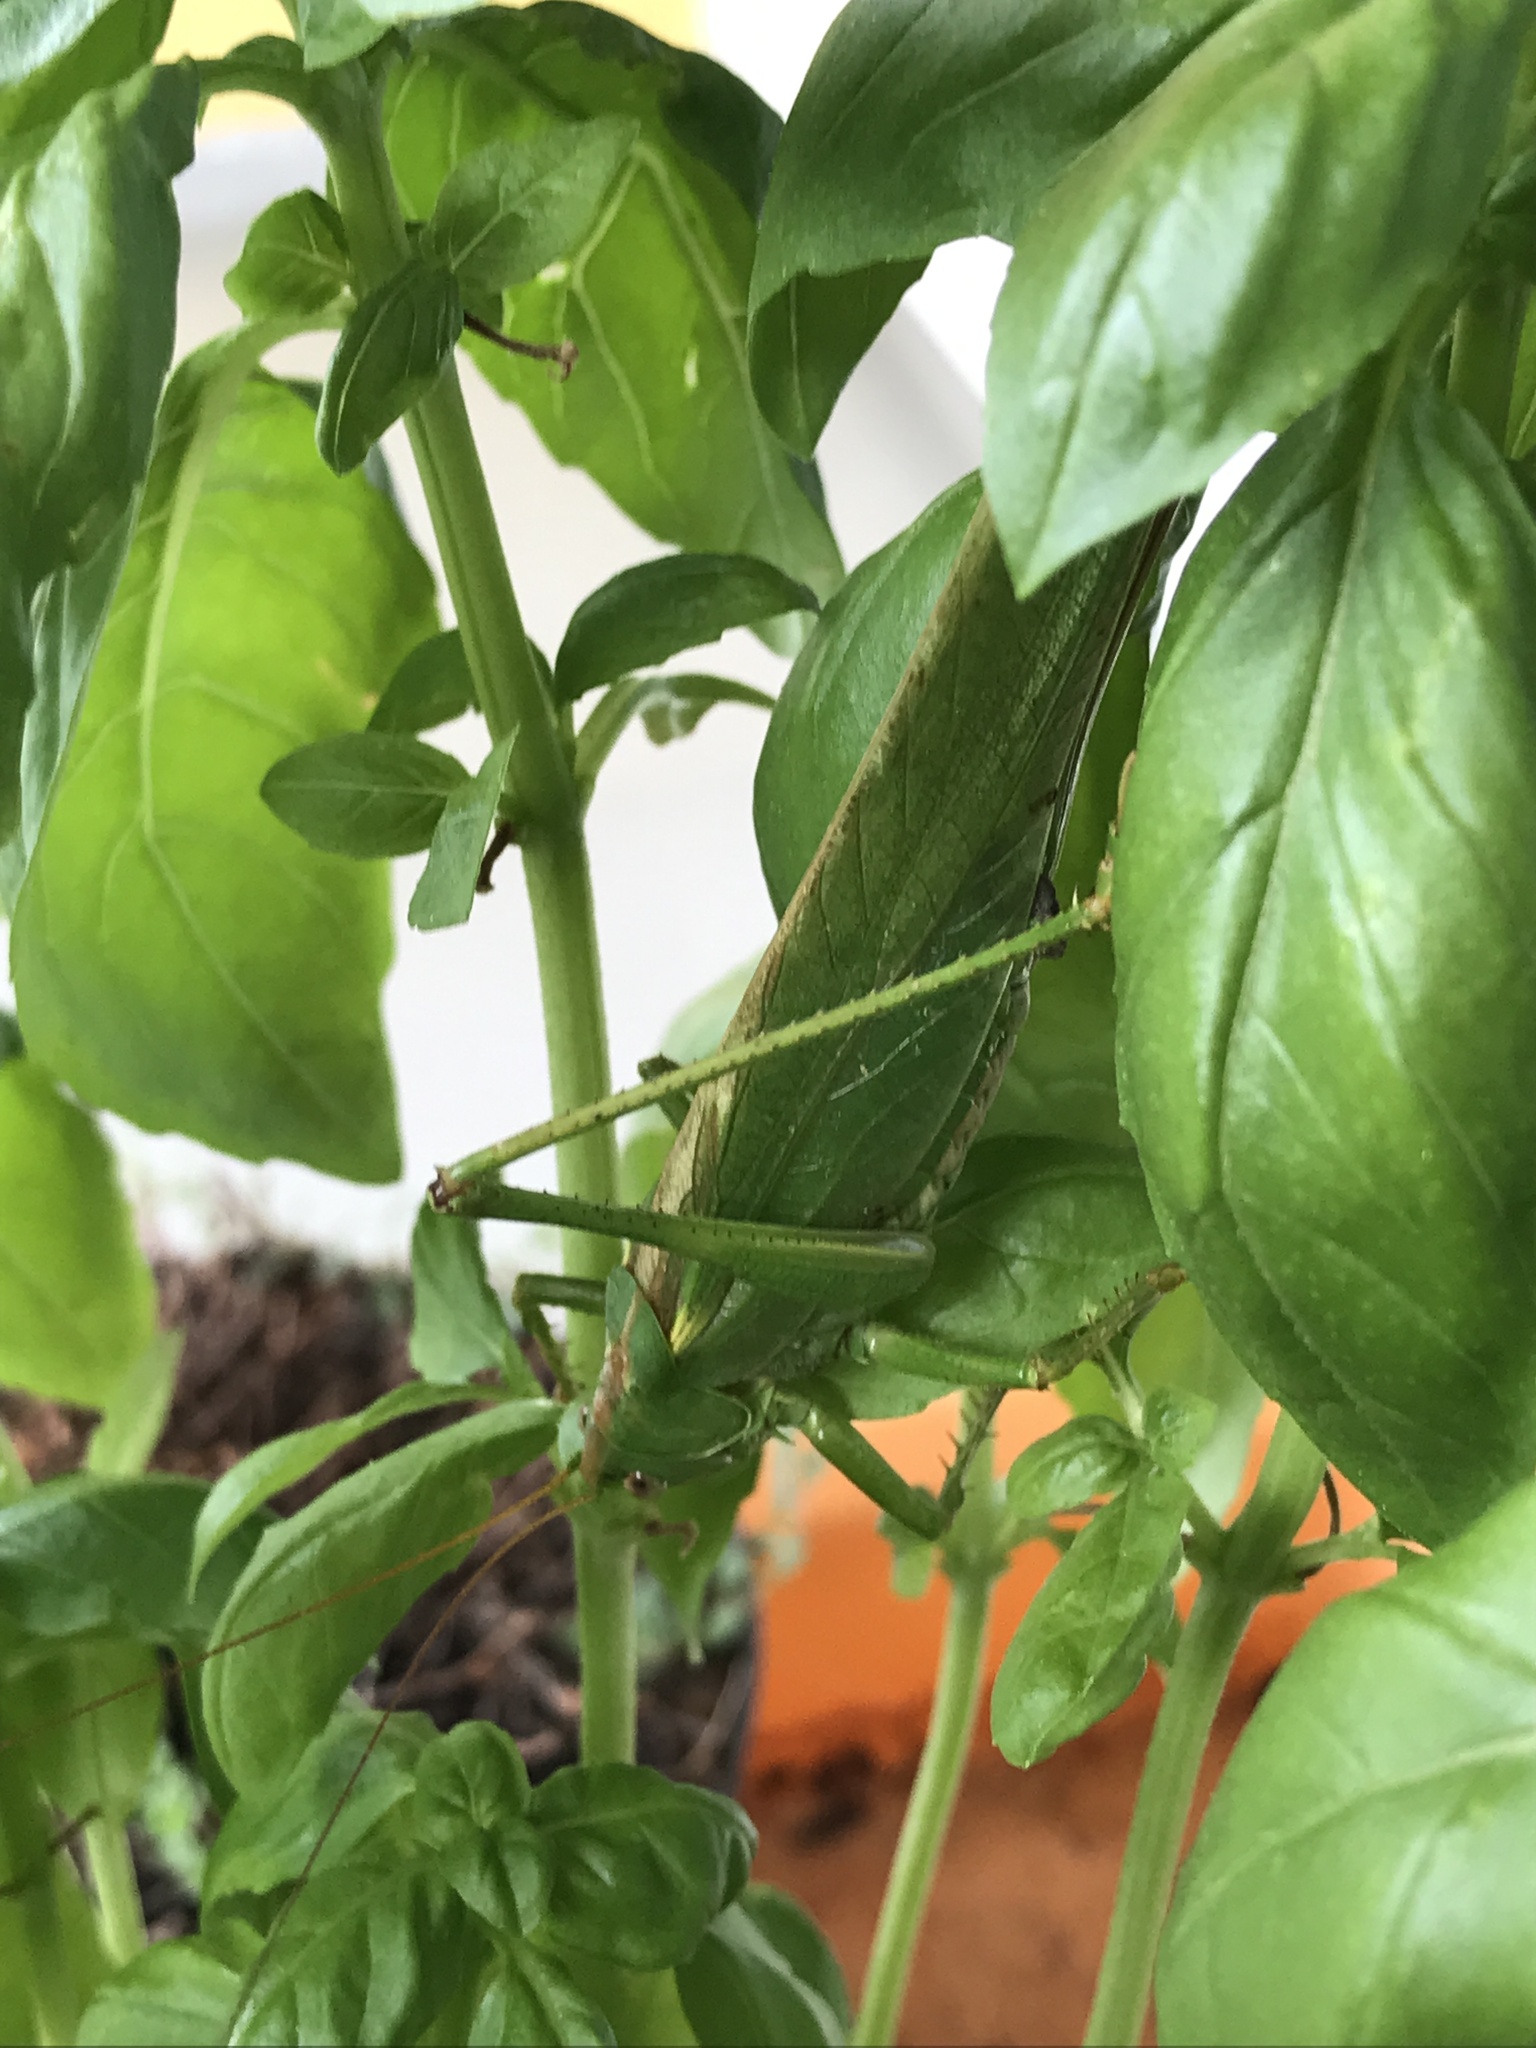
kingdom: Animalia
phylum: Arthropoda
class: Insecta
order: Orthoptera
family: Tettigoniidae
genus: Tettigonia
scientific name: Tettigonia viridissima
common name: Great green bush-cricket
